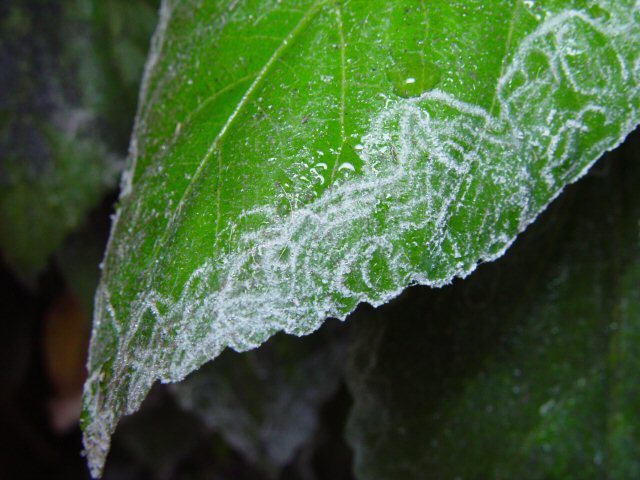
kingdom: Animalia
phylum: Arthropoda
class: Insecta
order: Hemiptera
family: Aleyrodidae
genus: Aleurodicus
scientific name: Aleurodicus dugesii
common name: Giant whitefly
